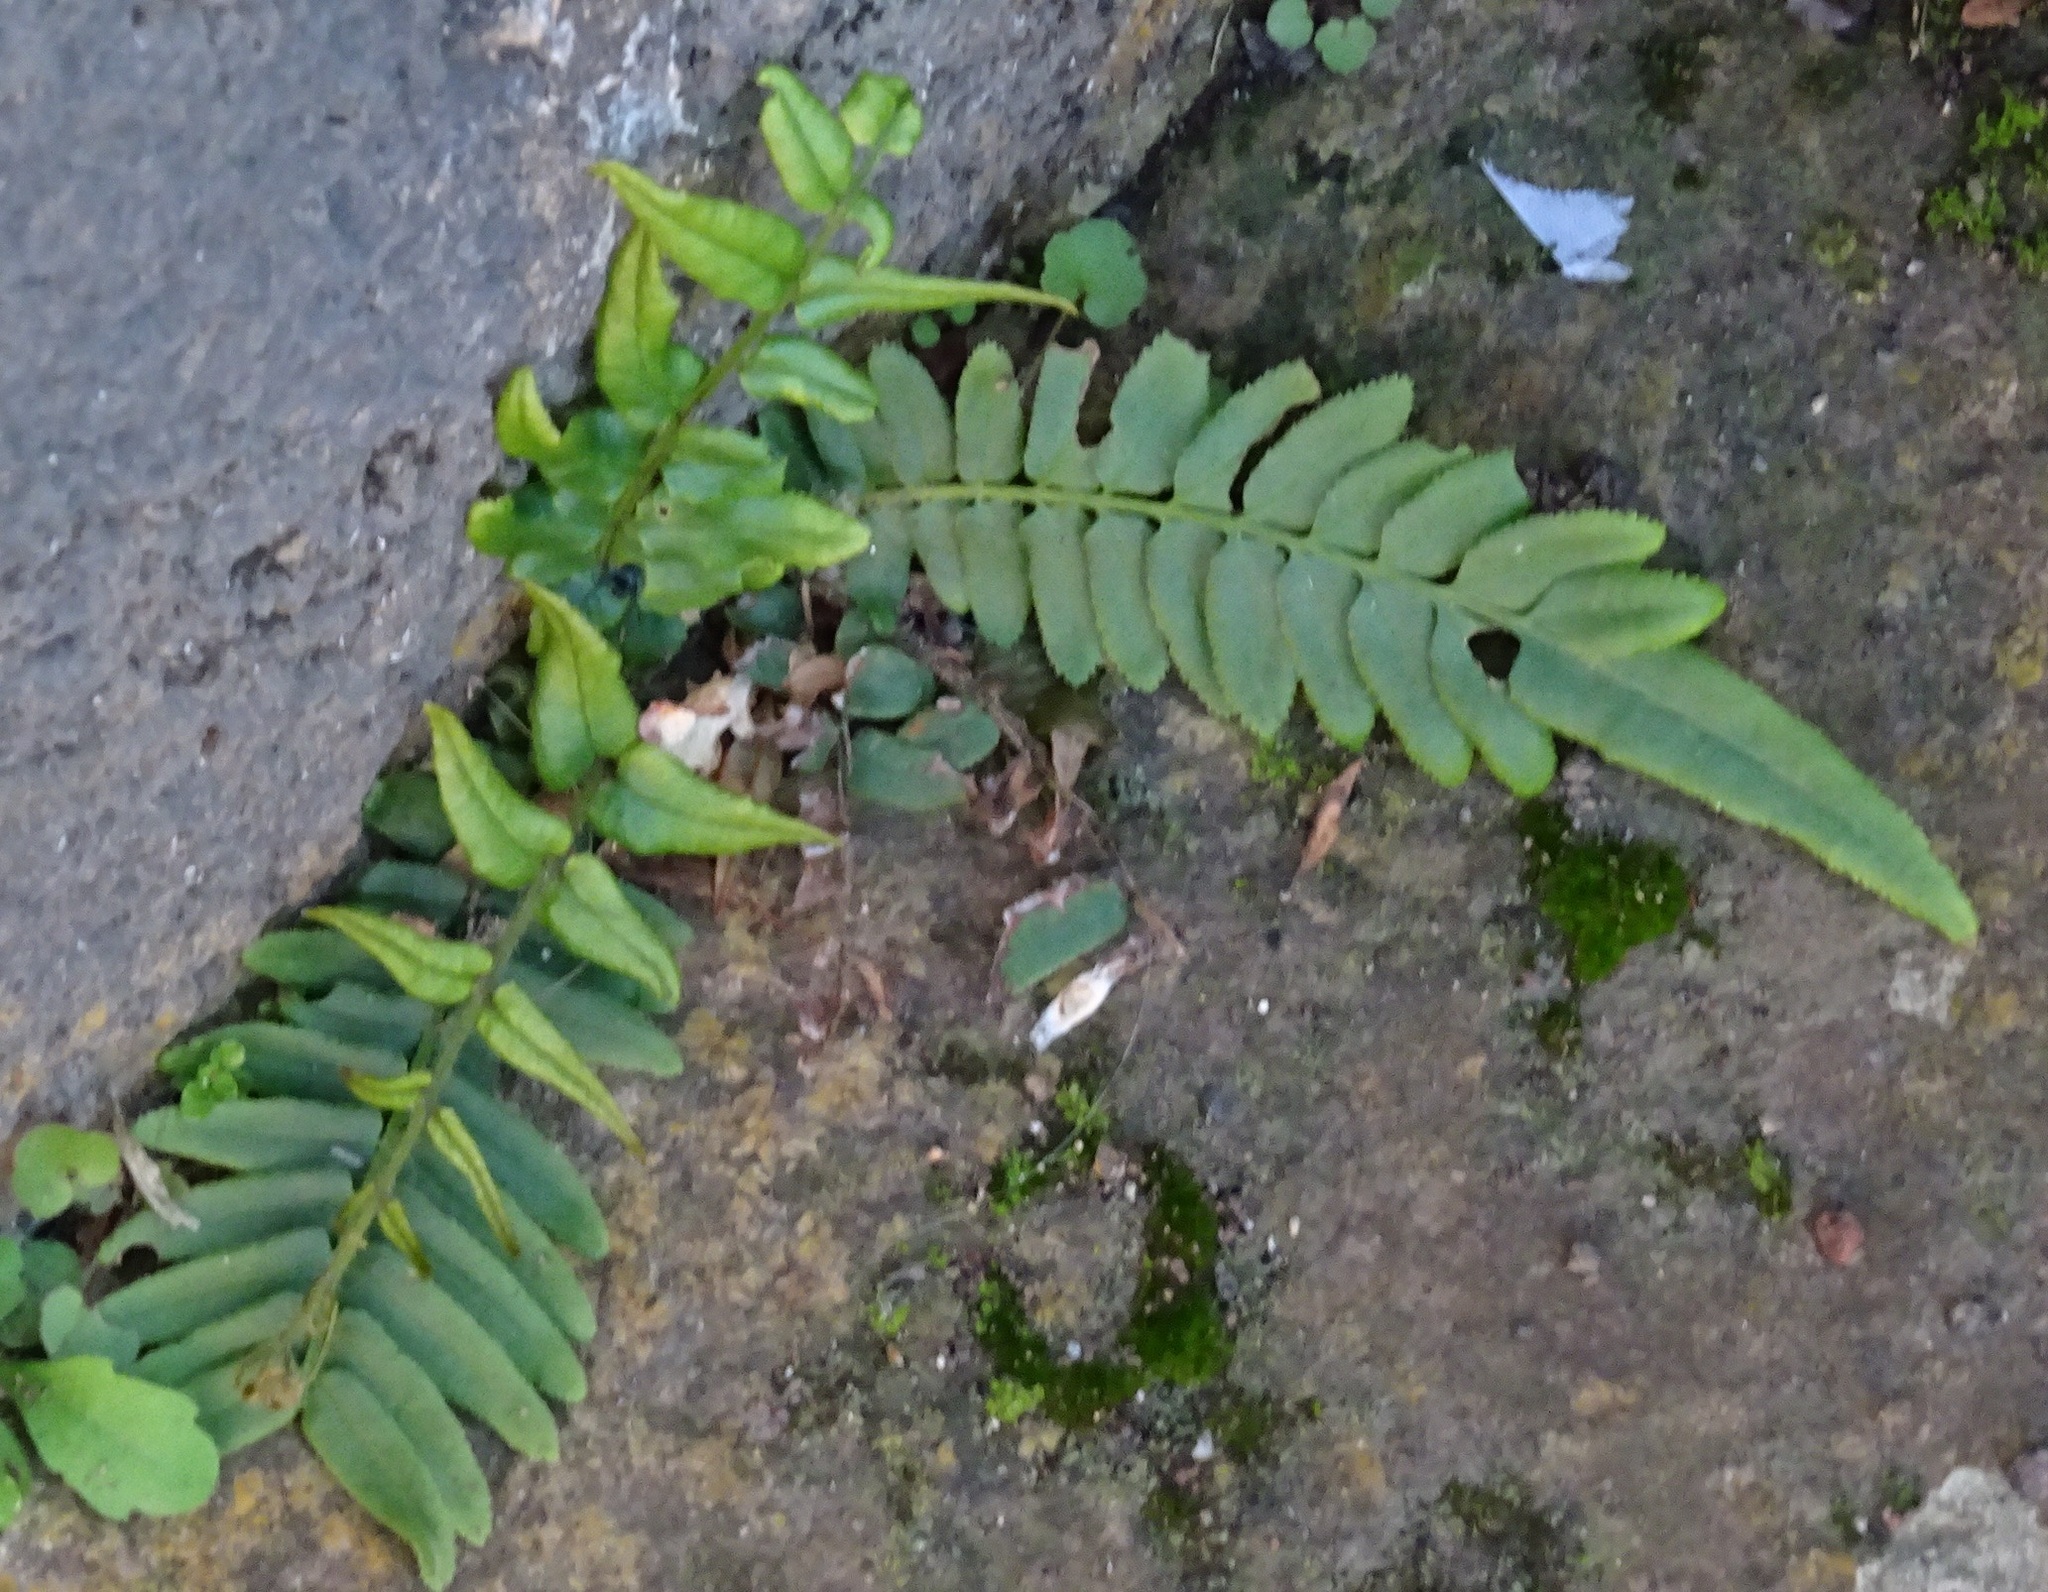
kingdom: Plantae
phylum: Tracheophyta
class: Polypodiopsida
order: Polypodiales
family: Pteridaceae
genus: Pteris
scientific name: Pteris vittata
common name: Ladder brake
